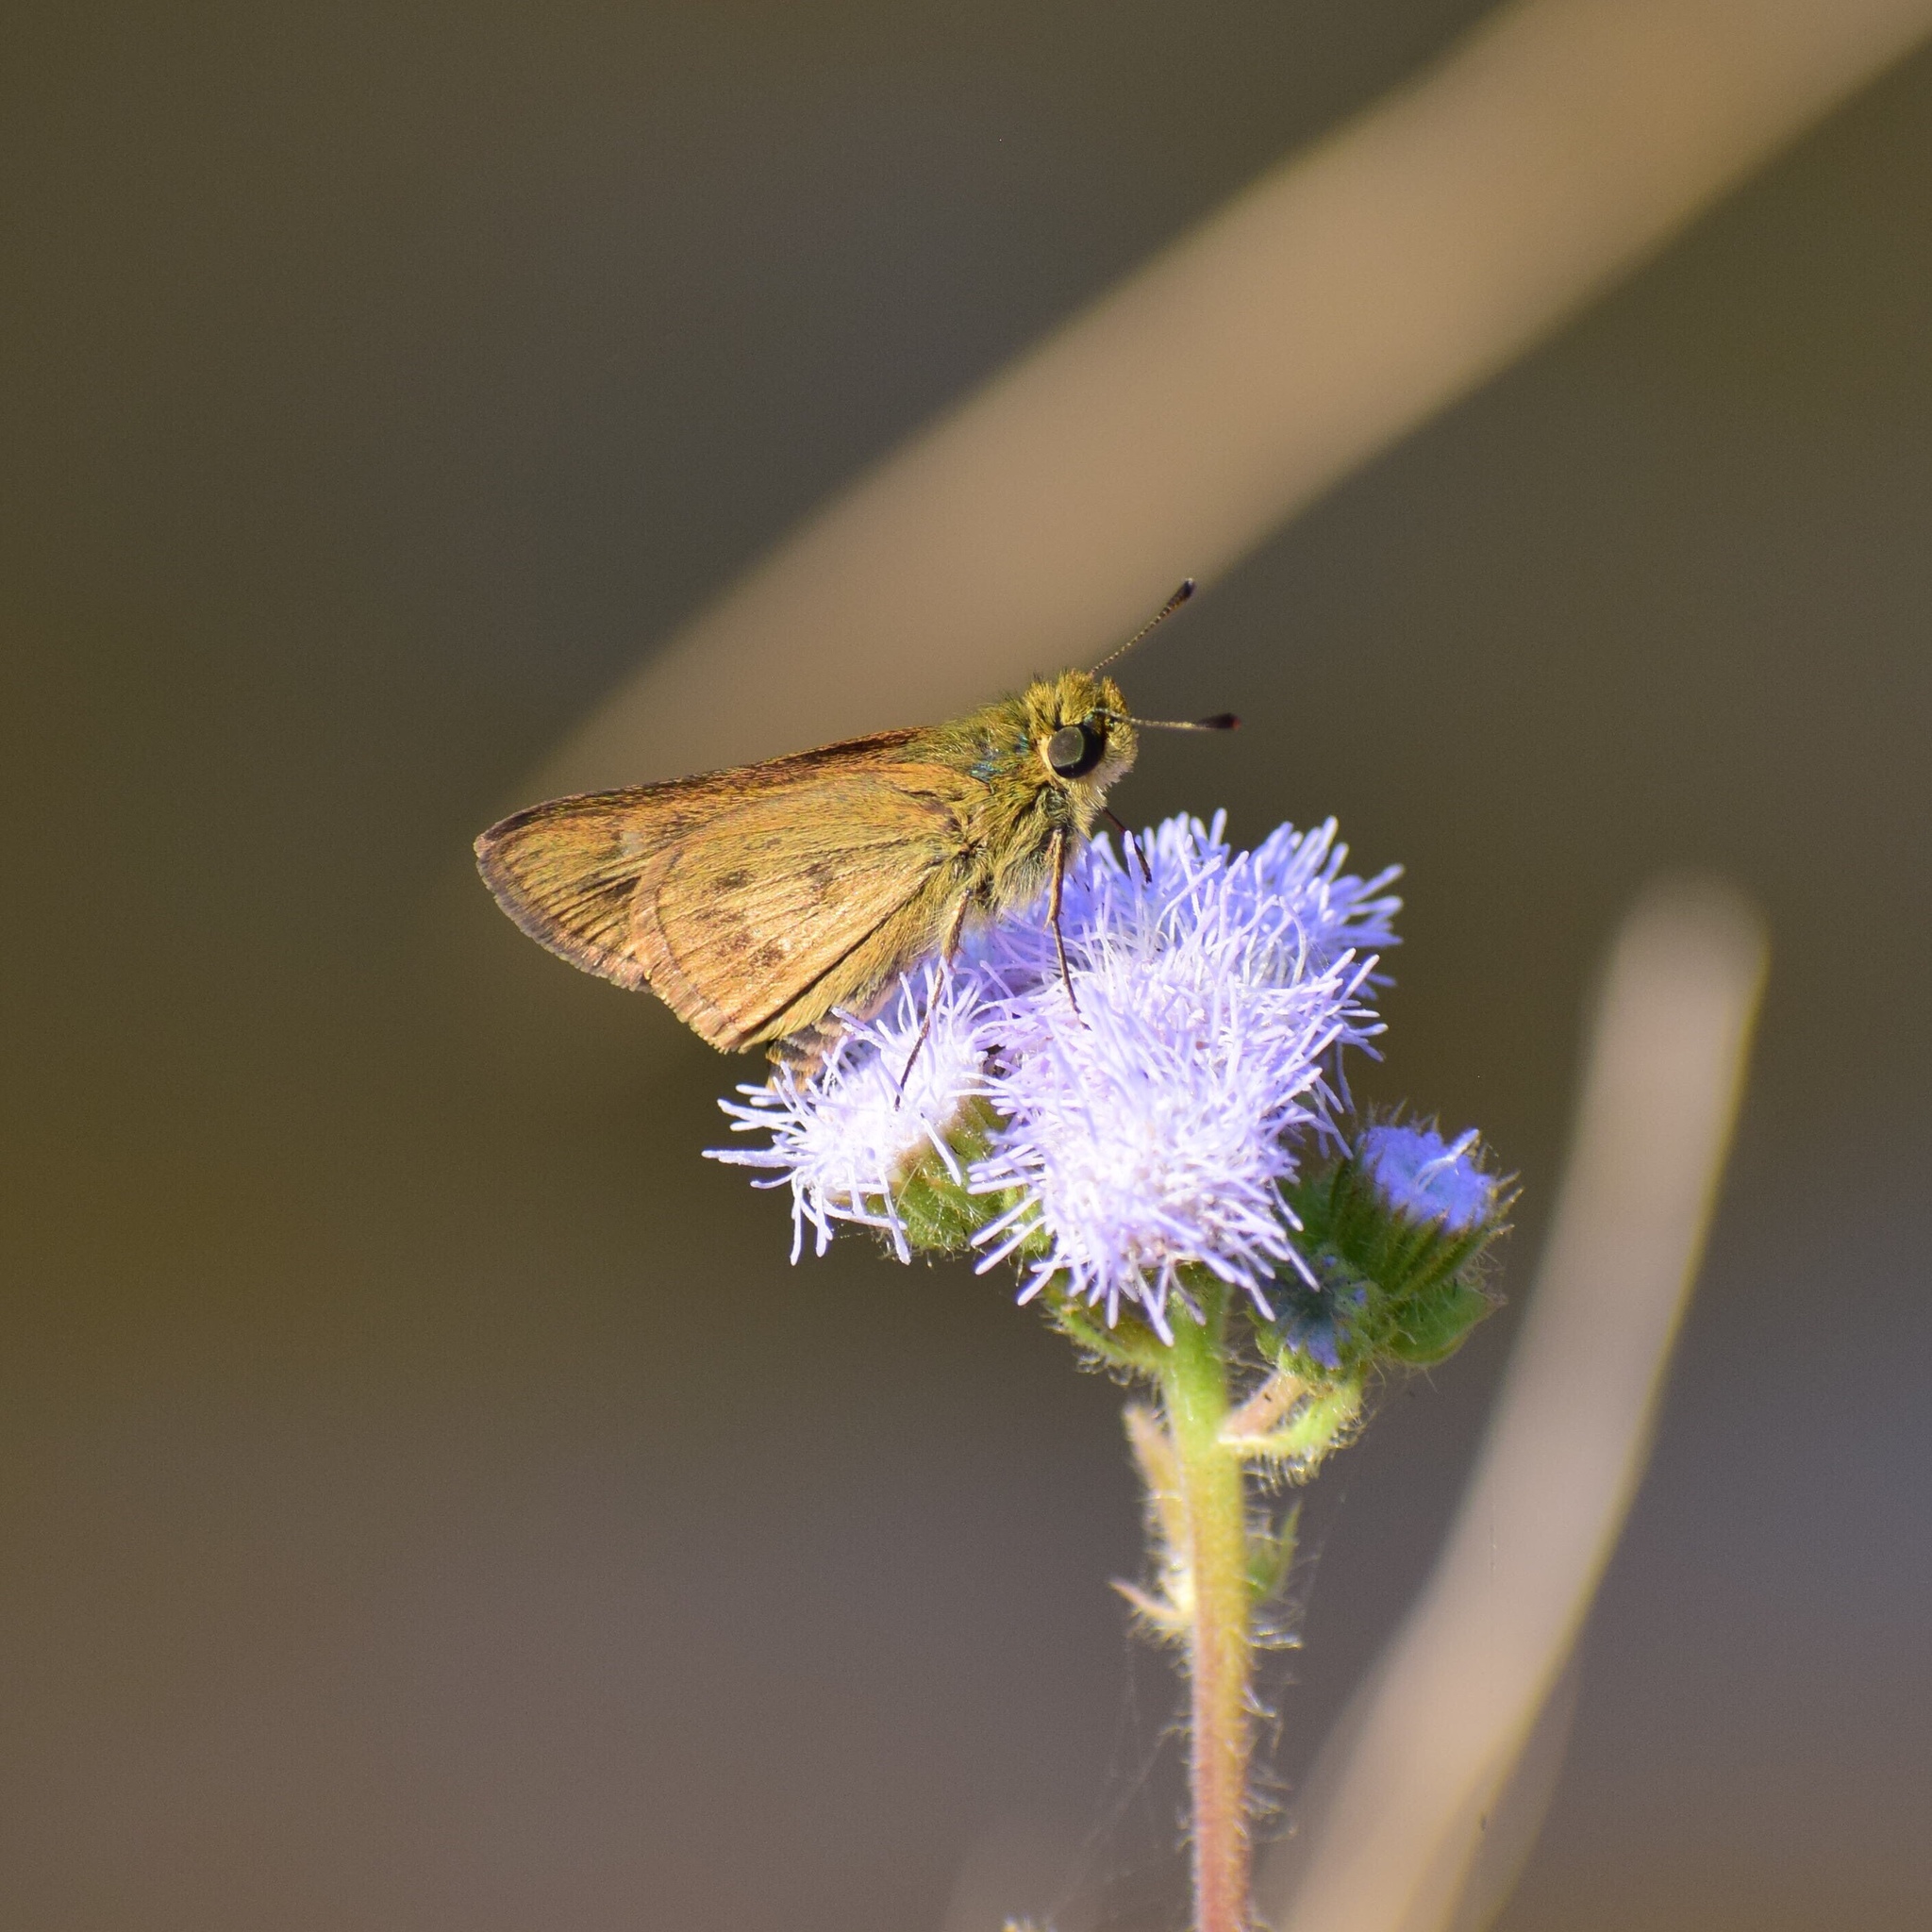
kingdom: Animalia
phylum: Arthropoda
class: Insecta
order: Lepidoptera
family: Hesperiidae
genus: Parnara
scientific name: Parnara naso
